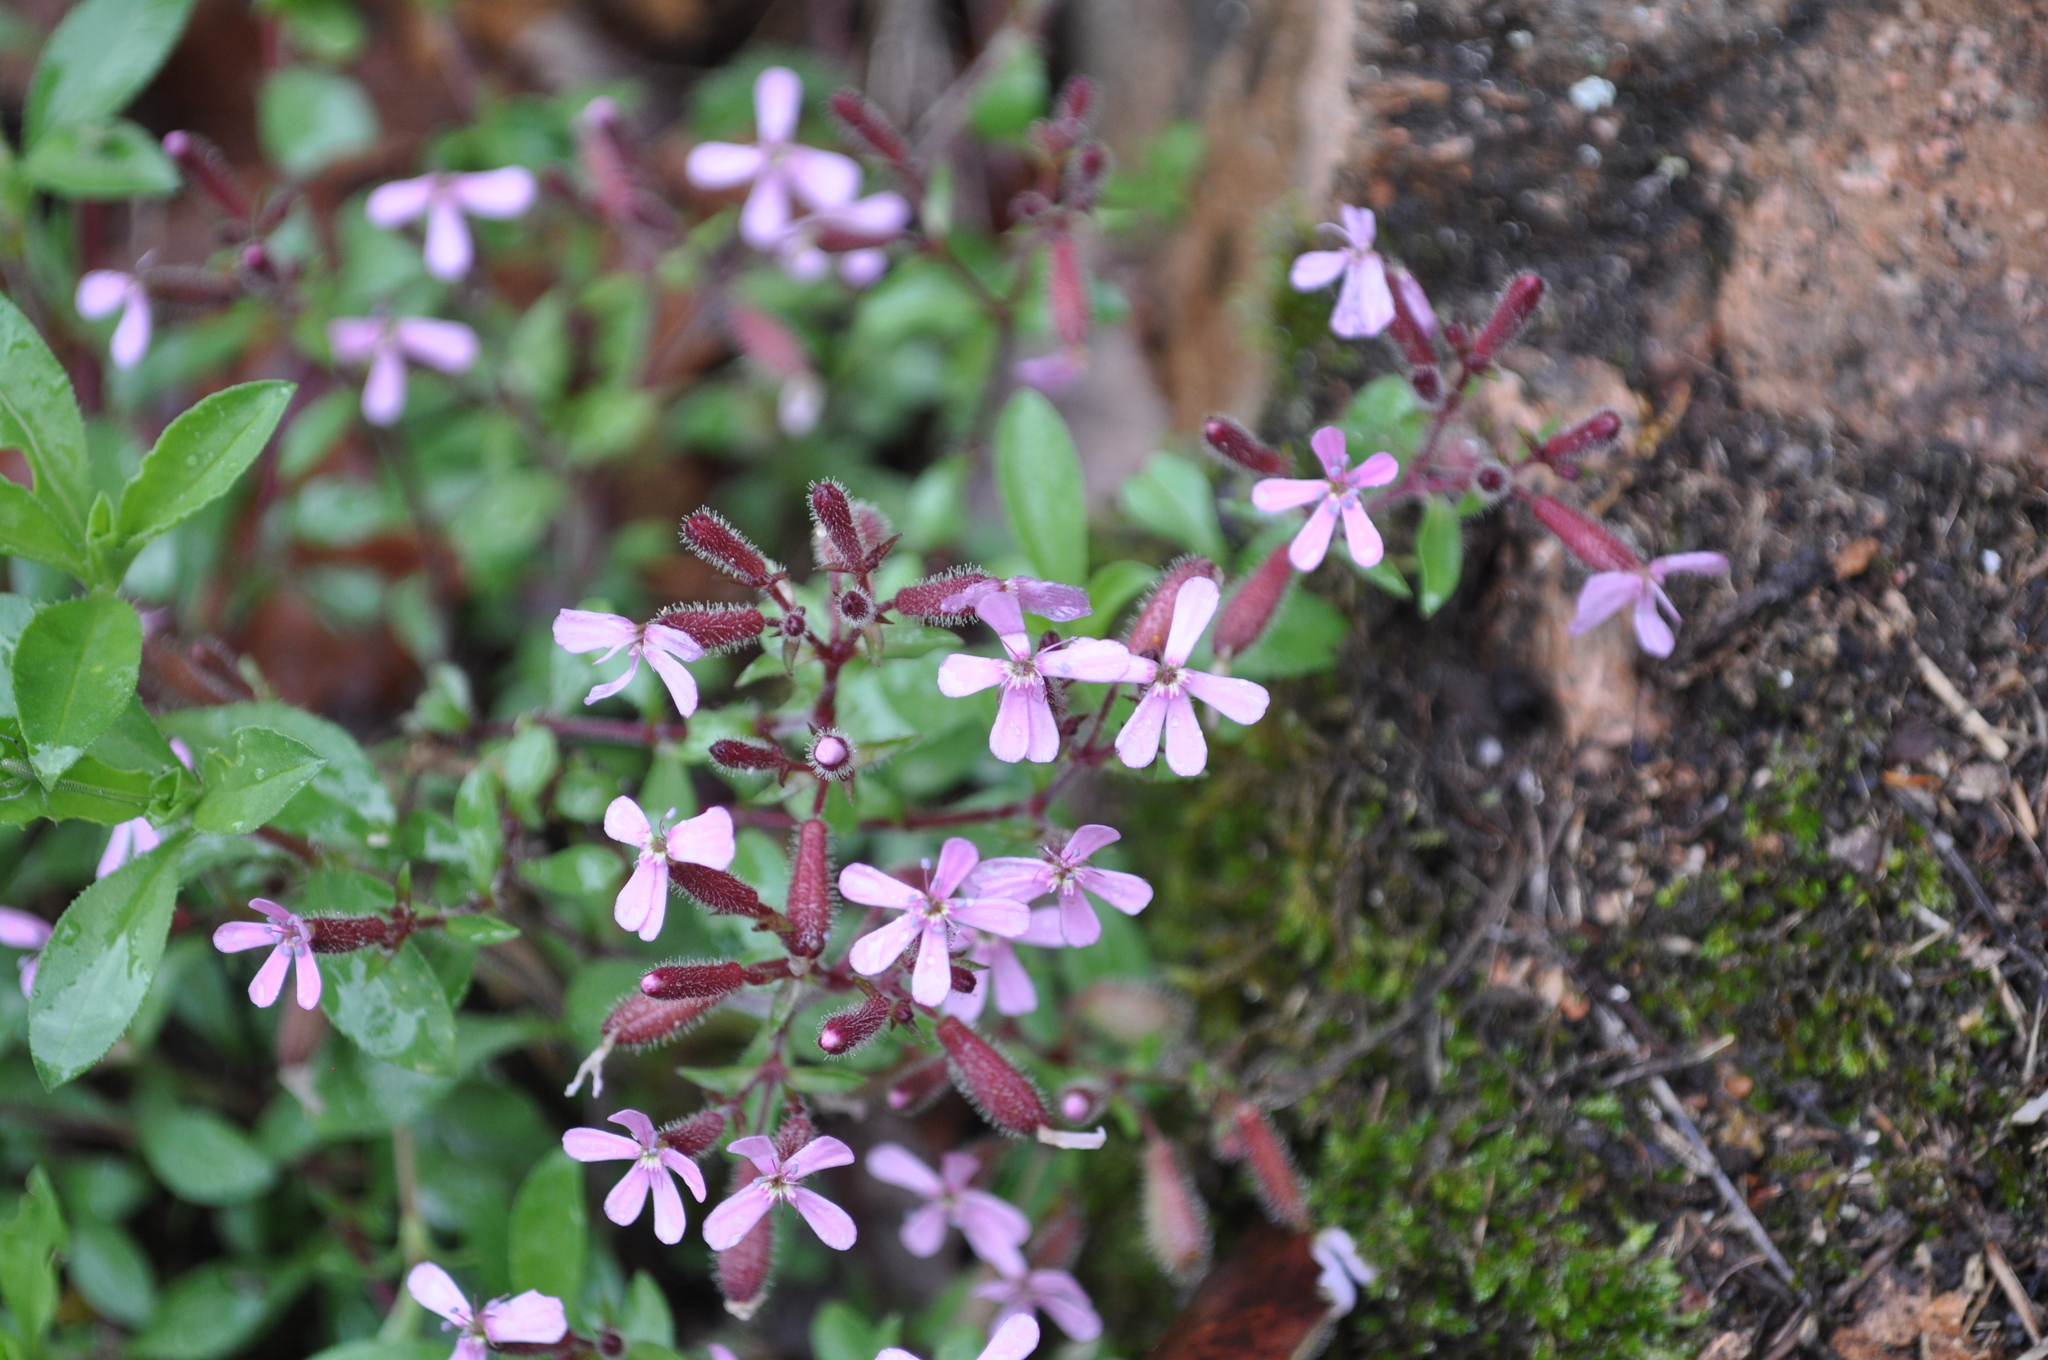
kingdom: Plantae
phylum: Tracheophyta
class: Magnoliopsida
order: Caryophyllales
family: Caryophyllaceae
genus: Saponaria
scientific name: Saponaria ocymoides
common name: Rock soapwort
